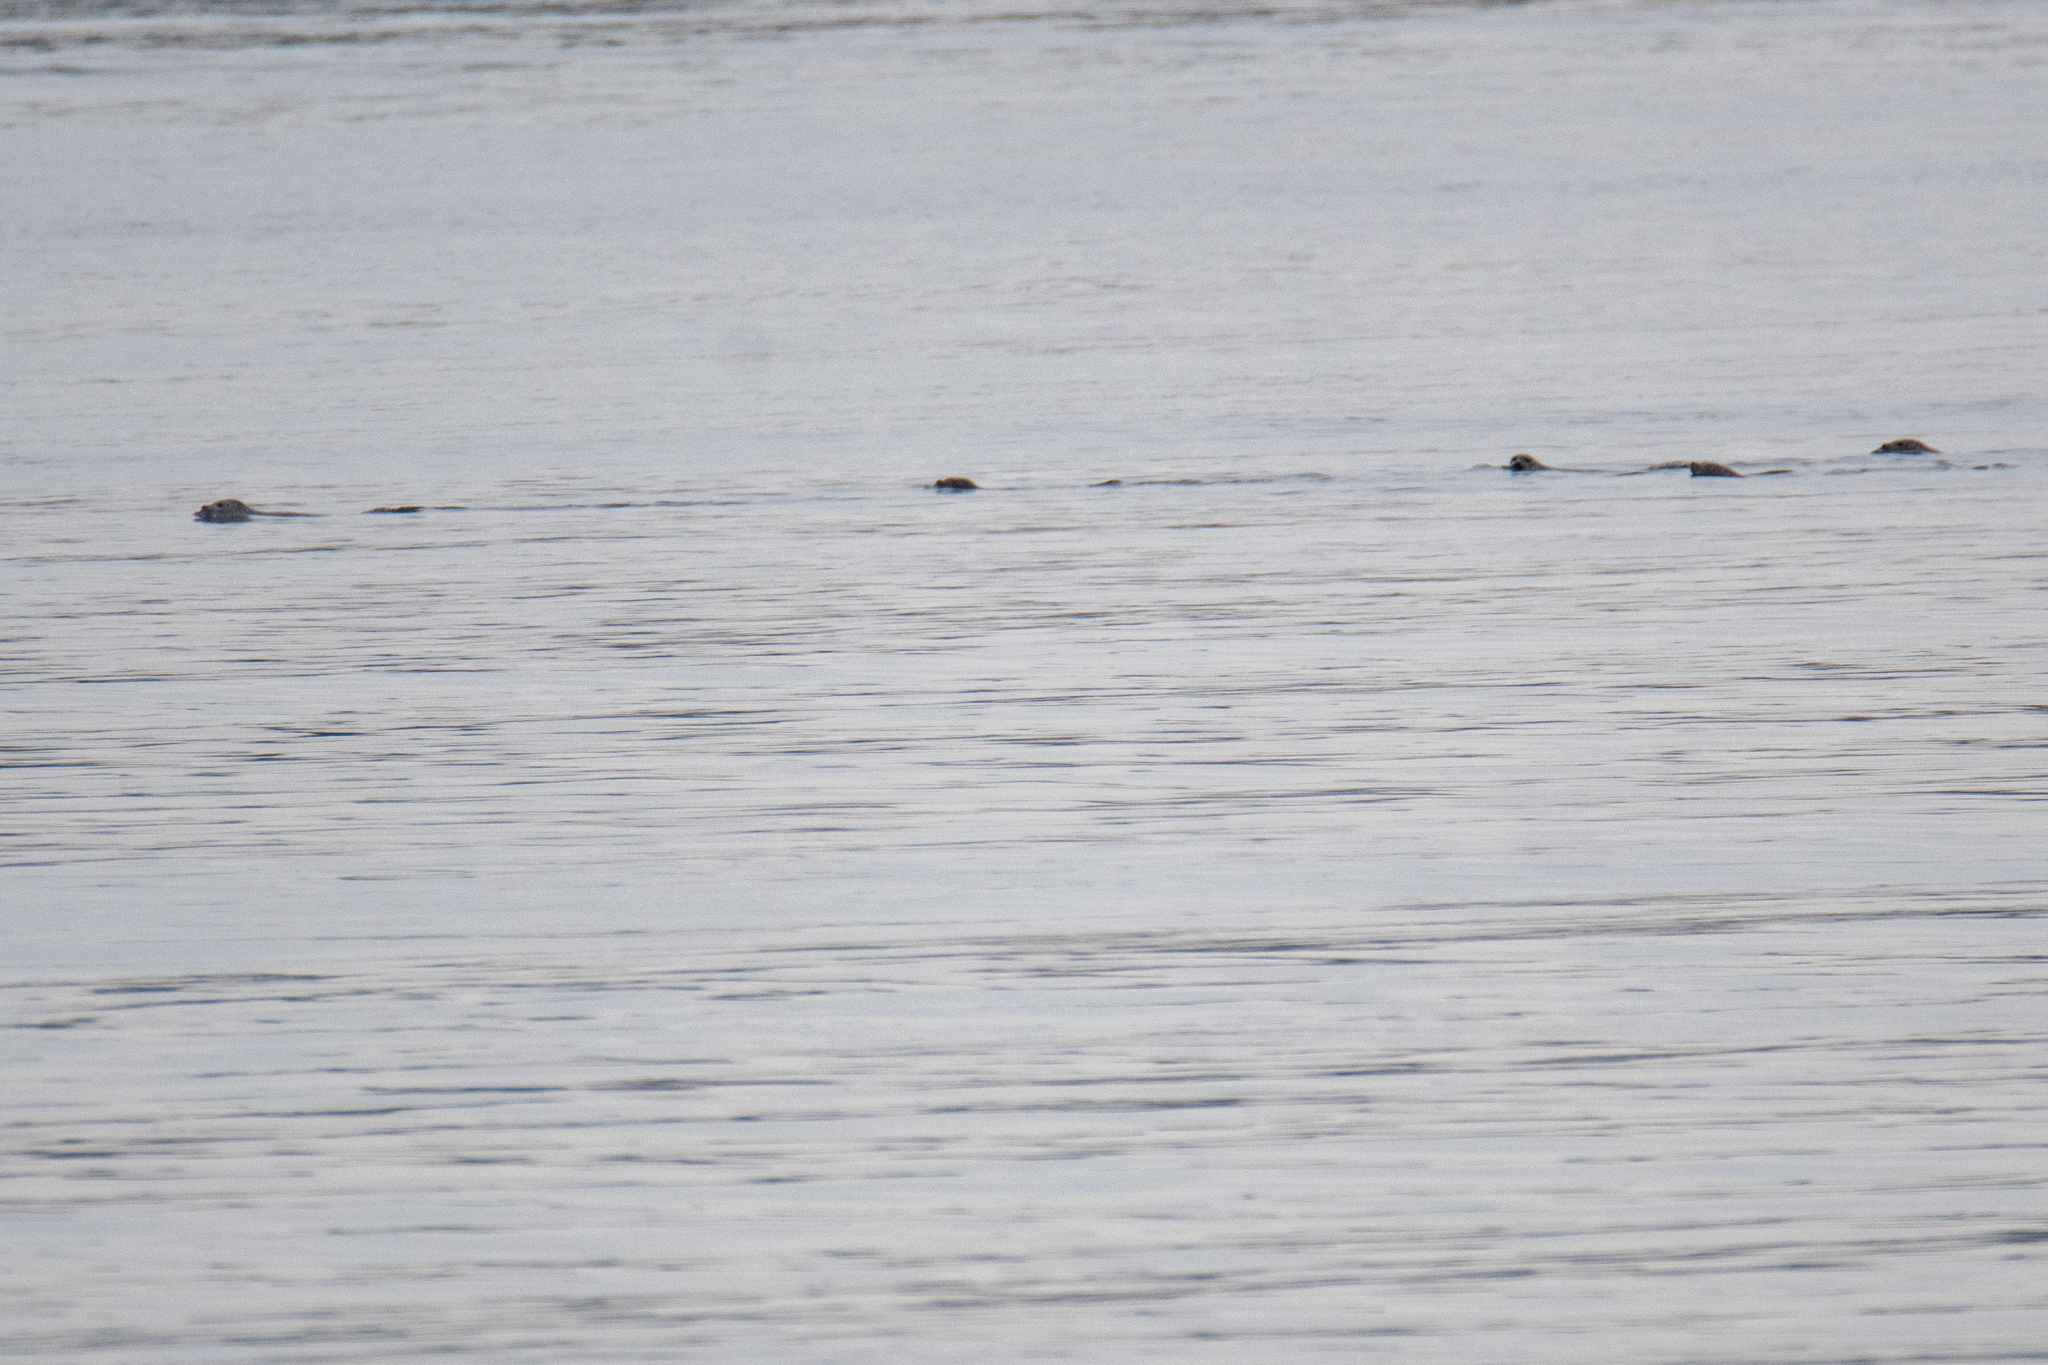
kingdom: Animalia
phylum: Chordata
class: Mammalia
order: Carnivora
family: Phocidae
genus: Phoca
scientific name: Phoca vitulina
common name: Harbor seal
